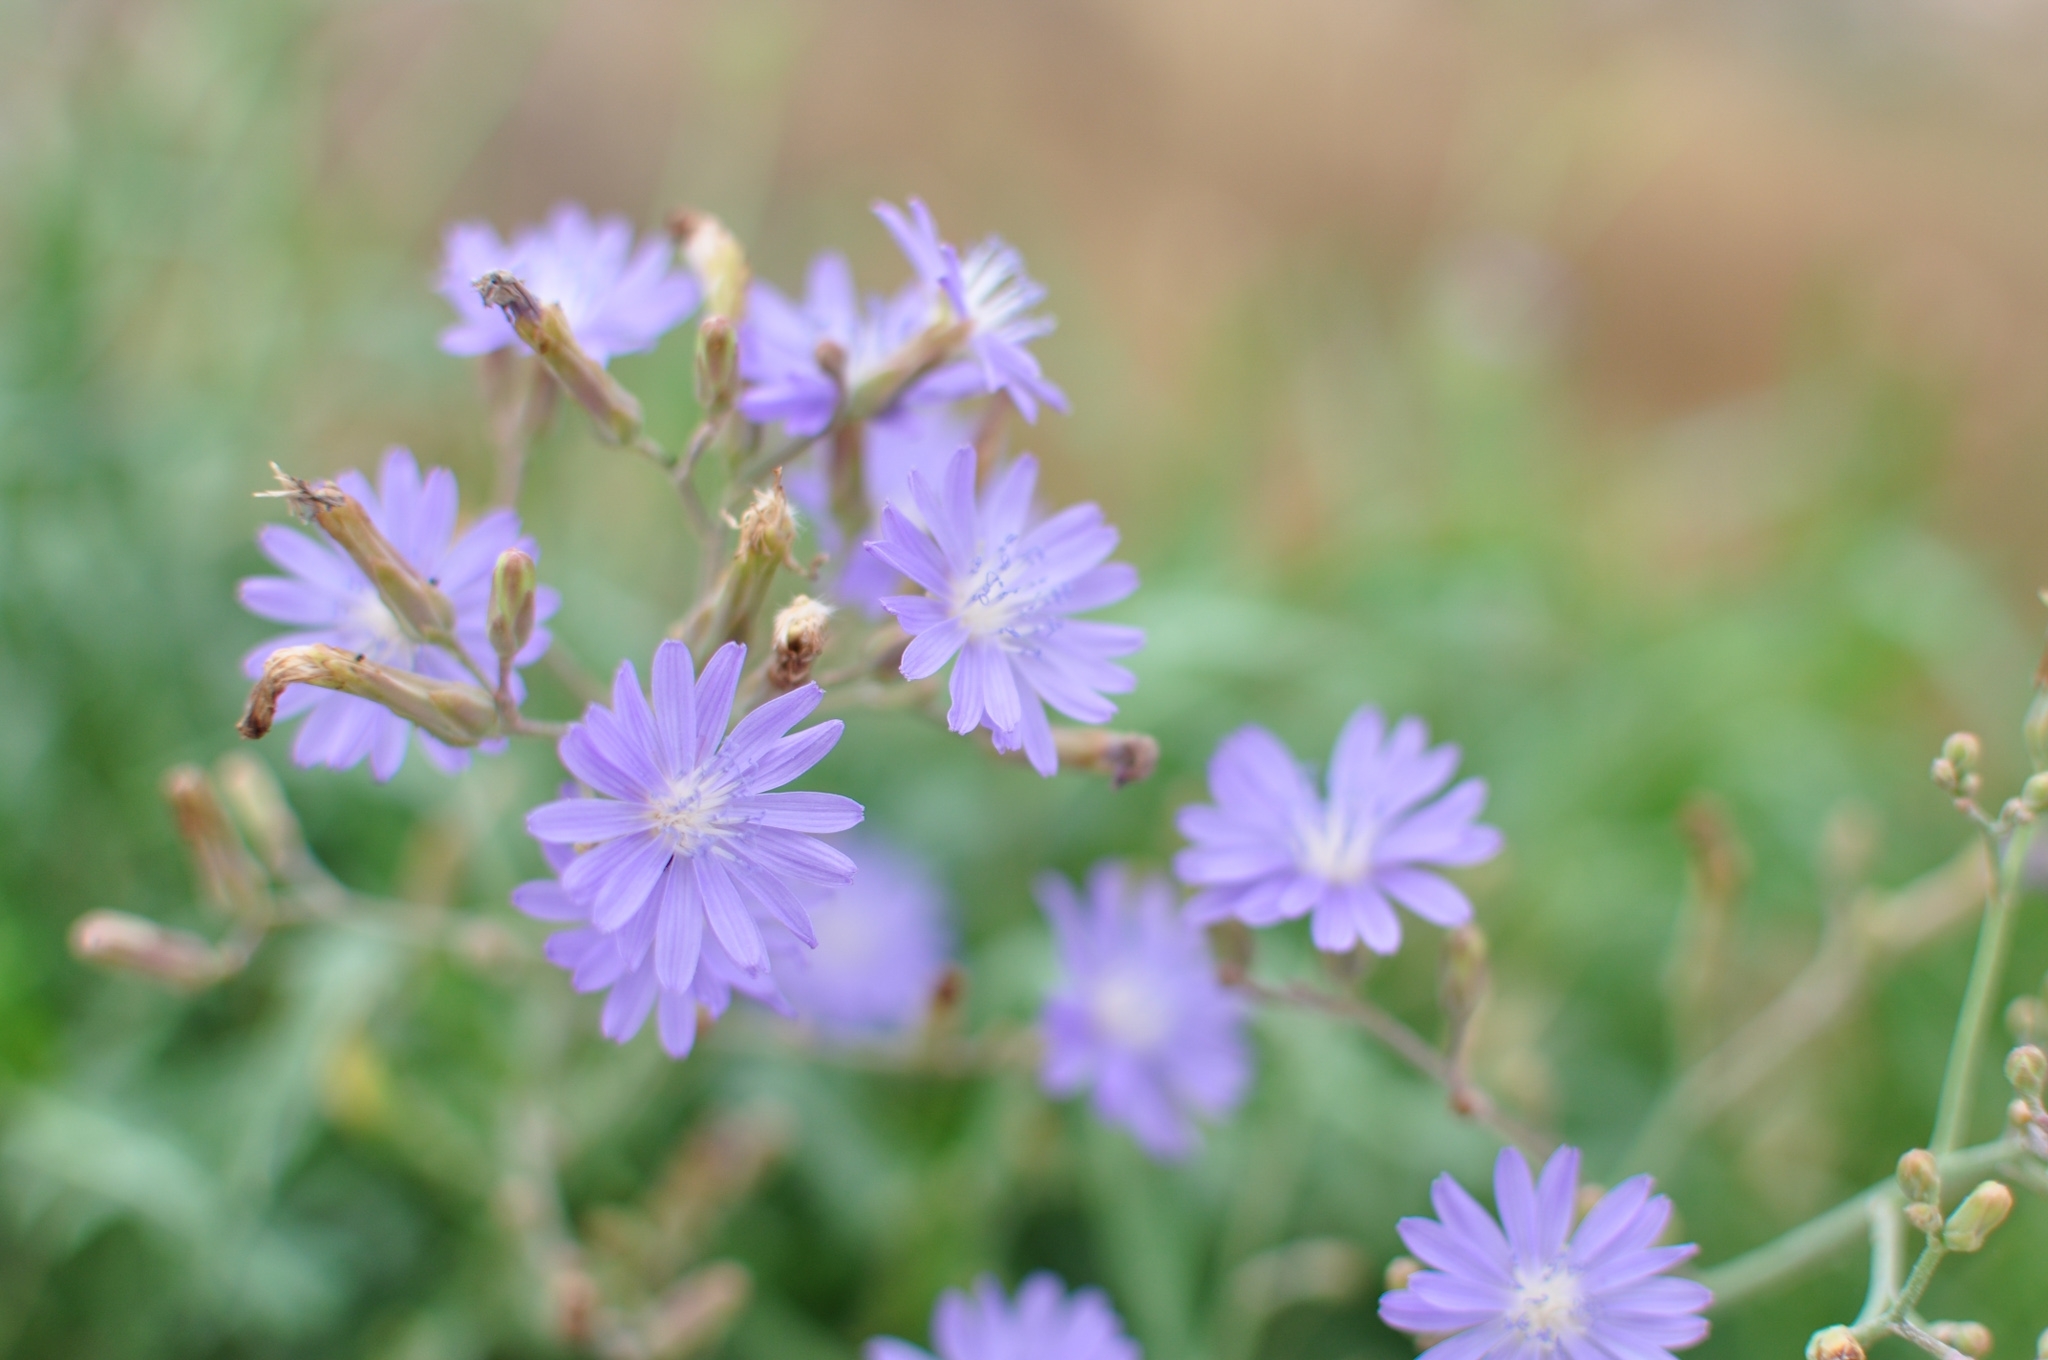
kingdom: Plantae
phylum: Tracheophyta
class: Magnoliopsida
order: Asterales
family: Asteraceae
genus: Lactuca
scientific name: Lactuca tatarica
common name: Blue lettuce
